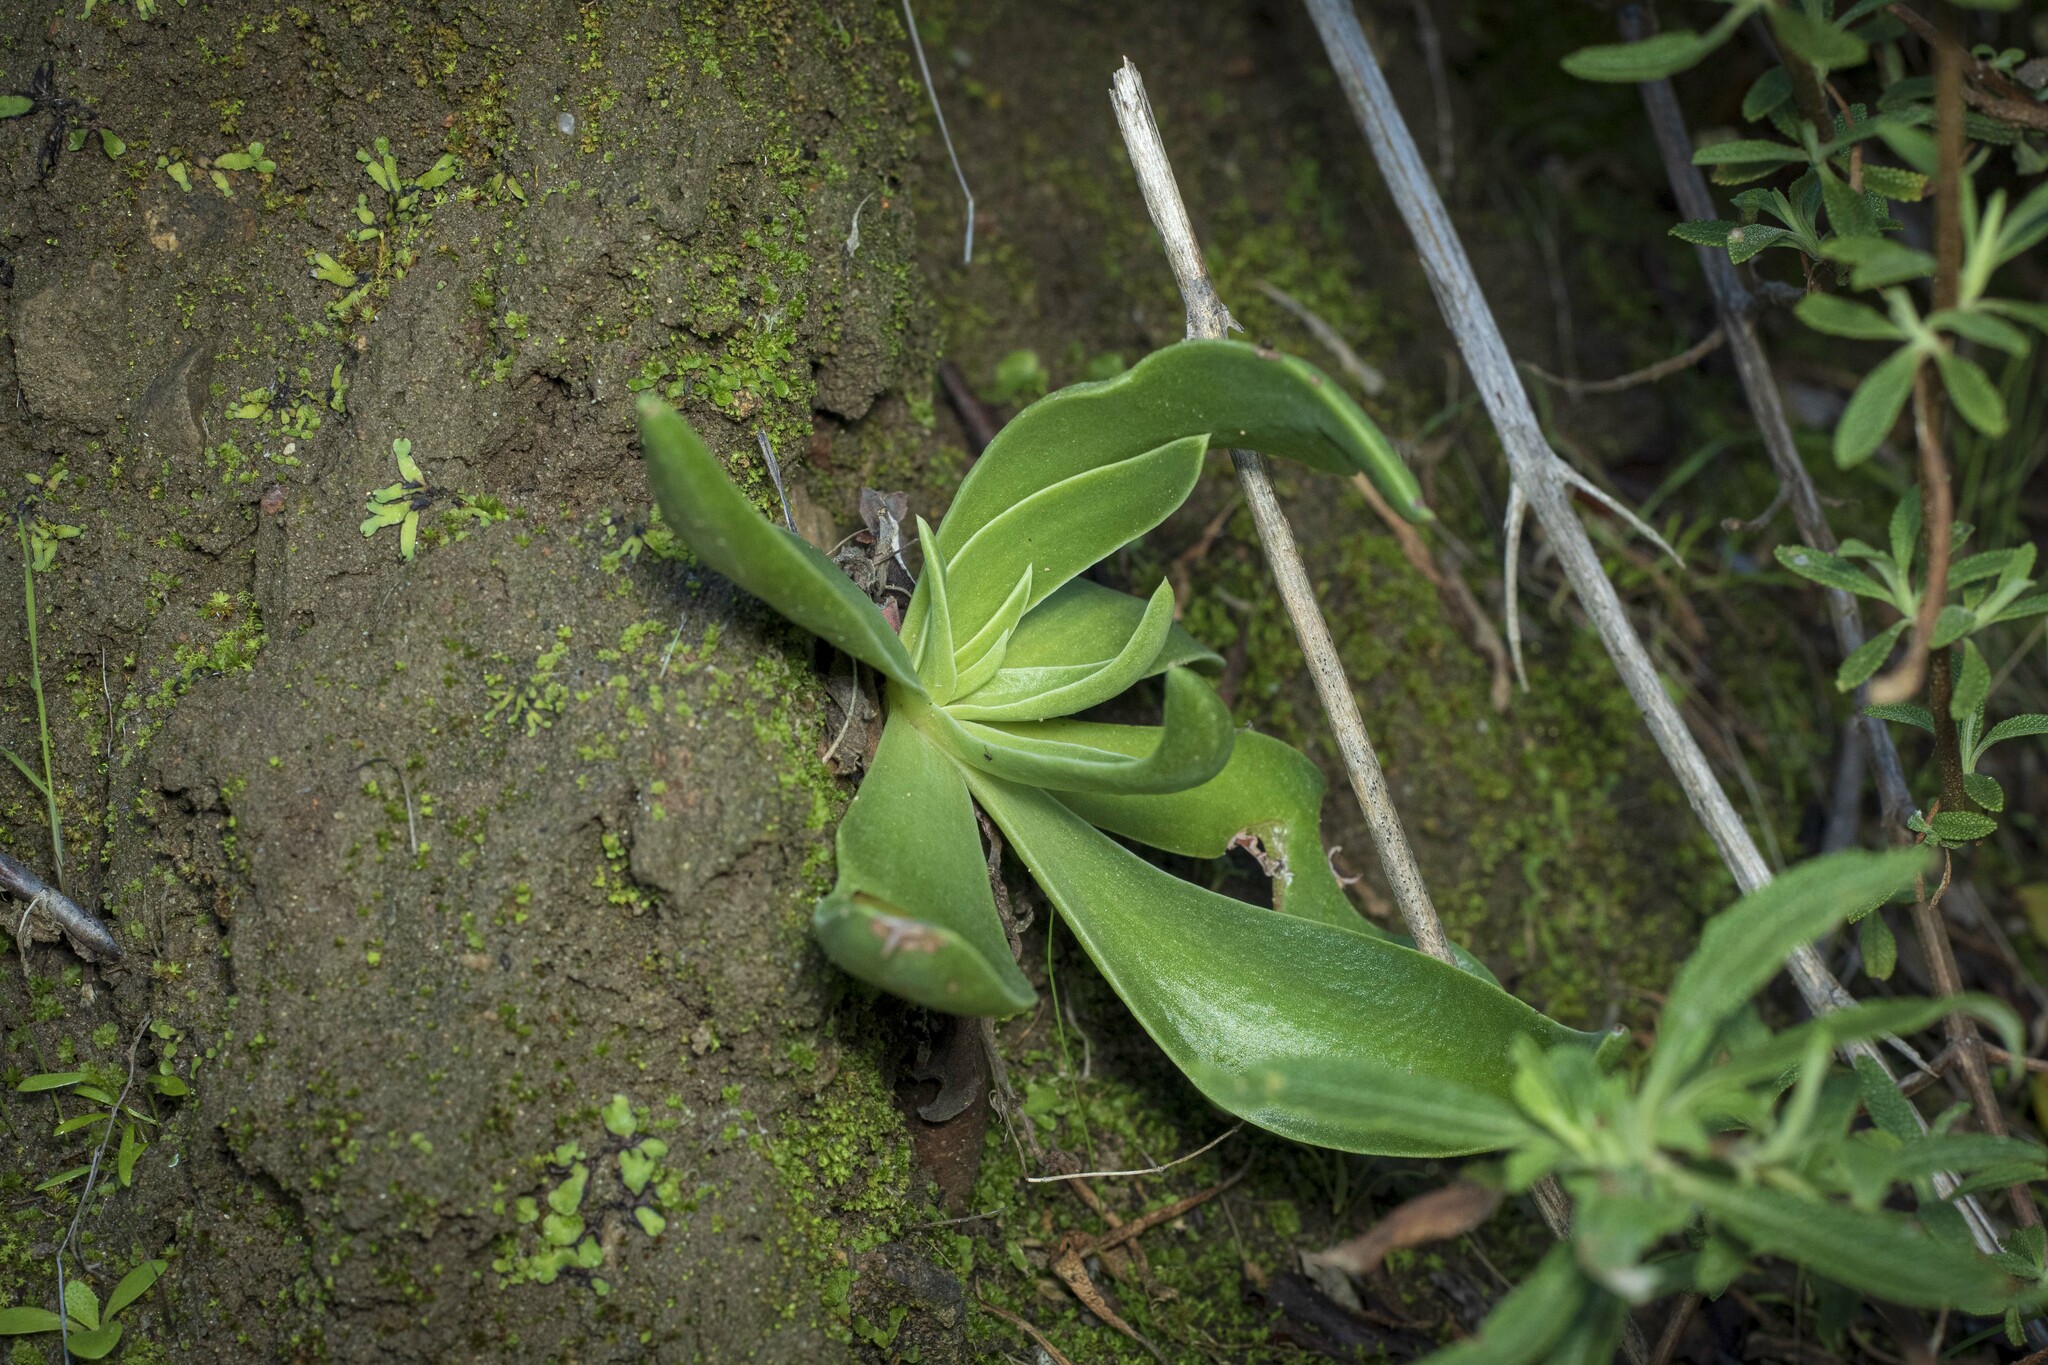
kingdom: Plantae
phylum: Tracheophyta
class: Magnoliopsida
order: Saxifragales
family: Crassulaceae
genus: Dudleya
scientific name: Dudleya lanceolata
